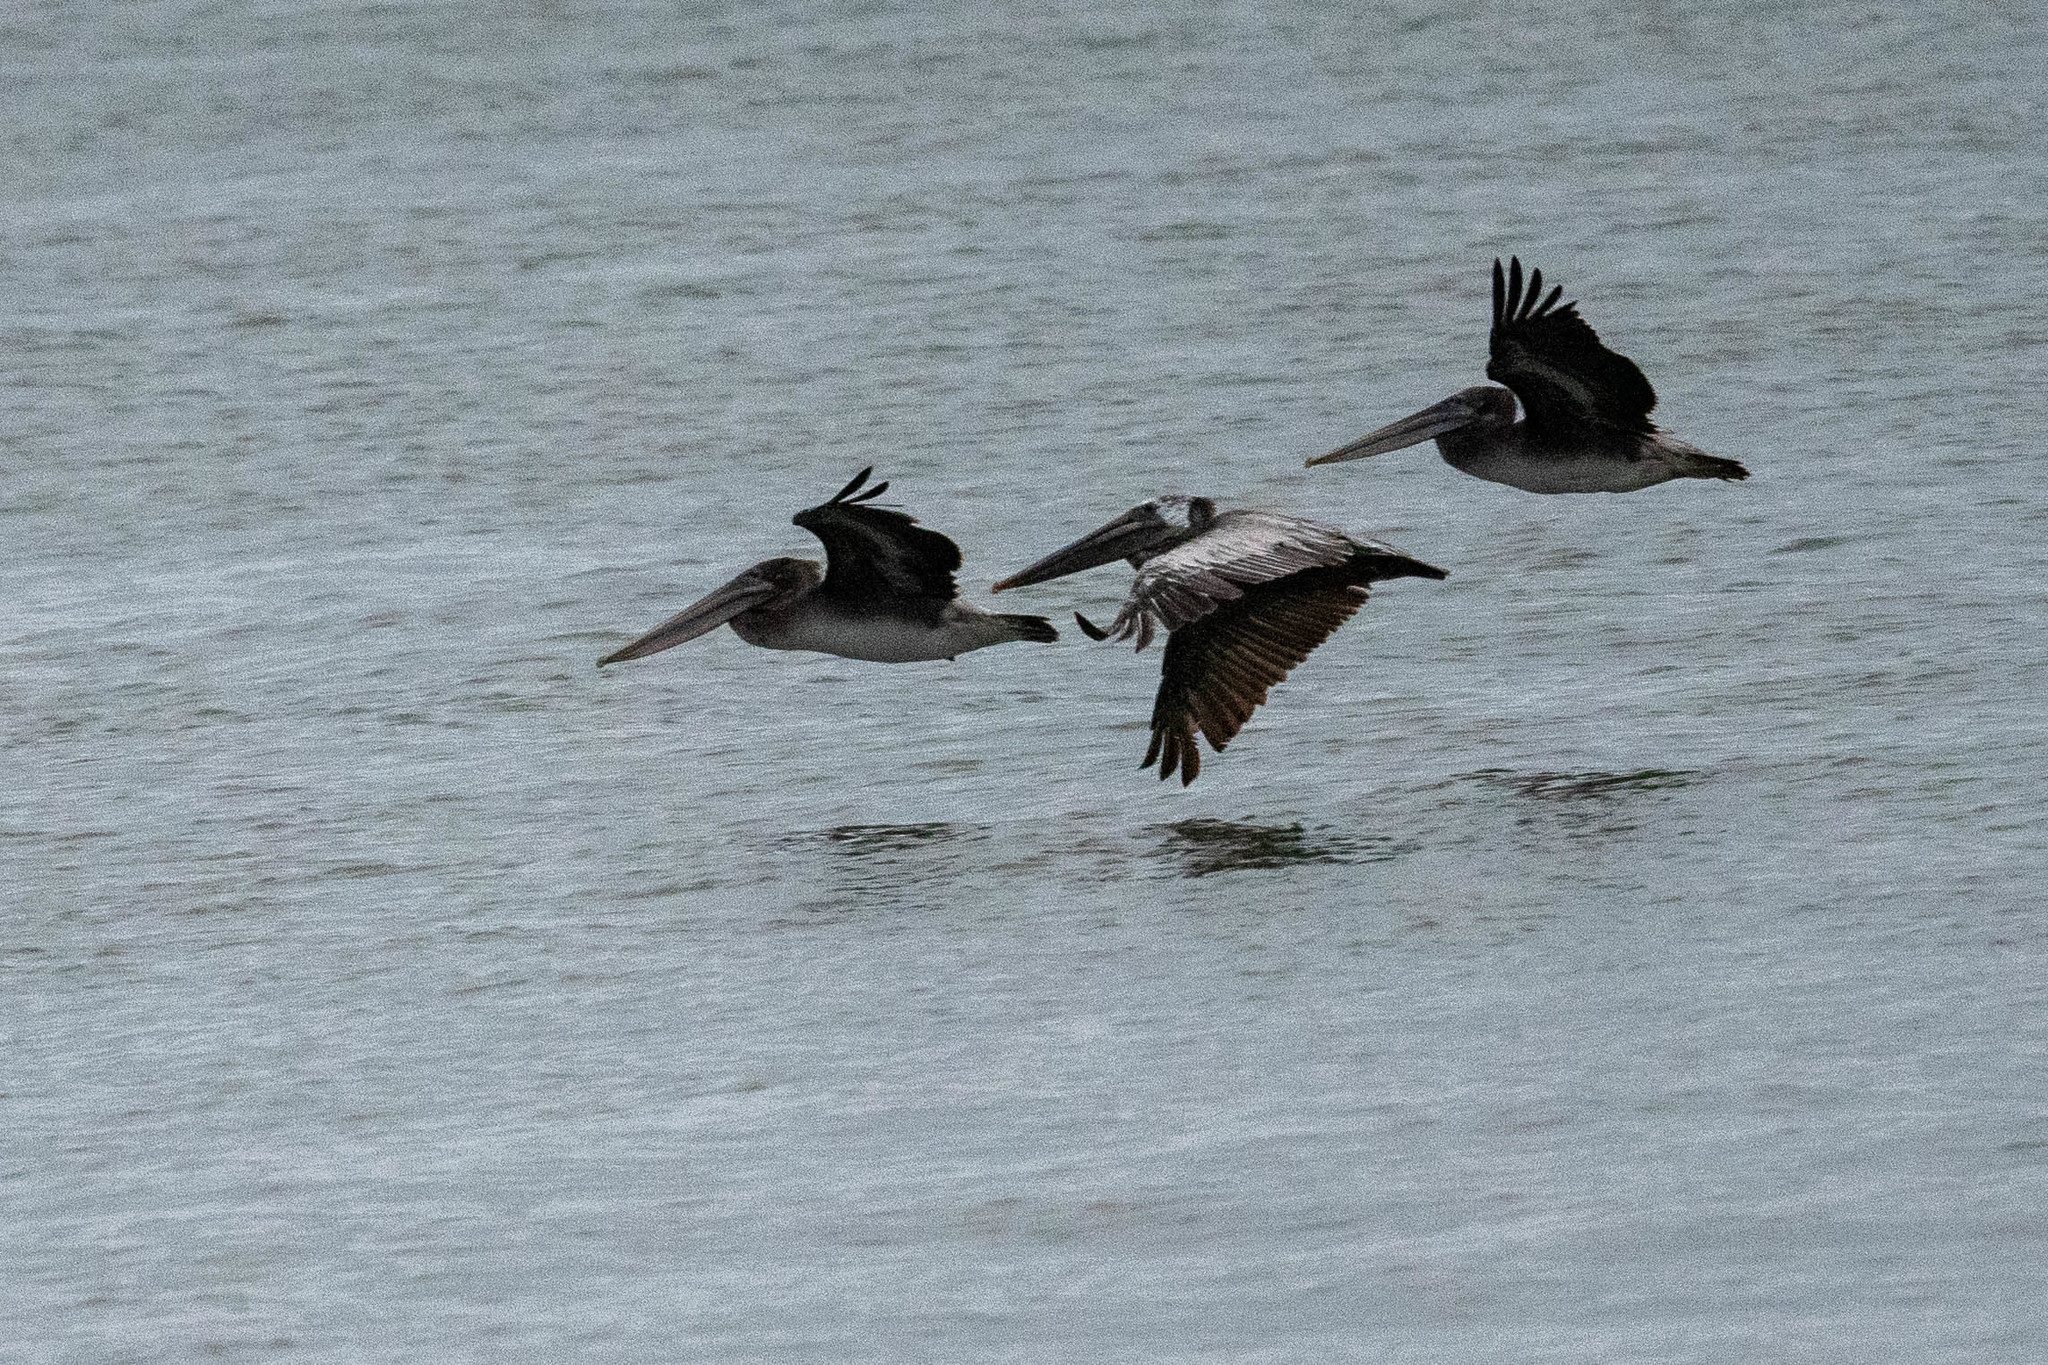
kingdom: Animalia
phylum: Chordata
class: Aves
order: Pelecaniformes
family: Pelecanidae
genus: Pelecanus
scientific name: Pelecanus occidentalis
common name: Brown pelican
